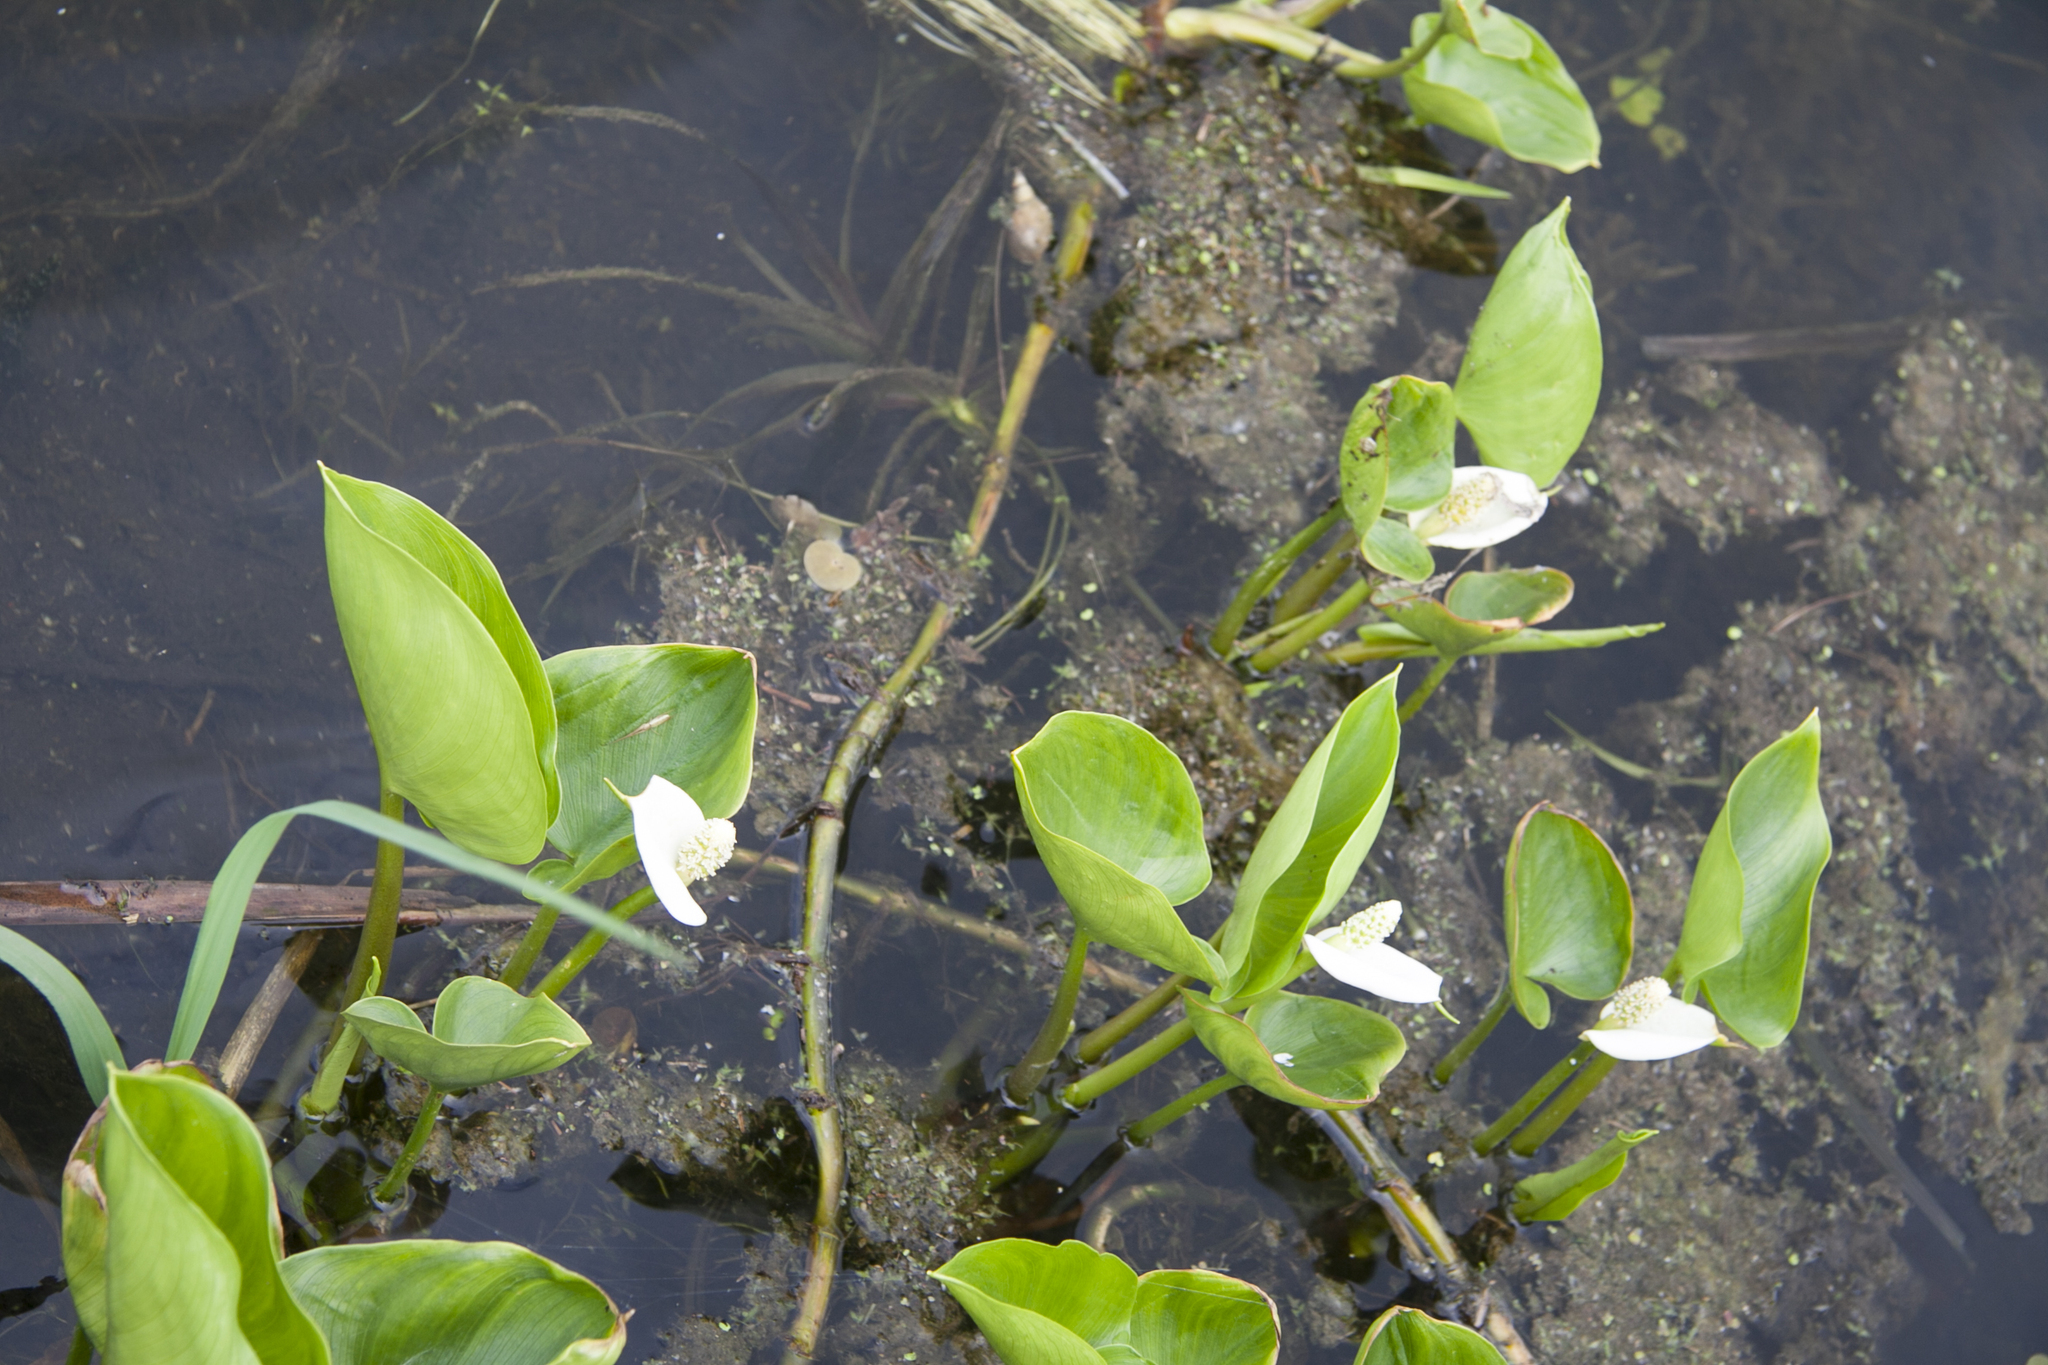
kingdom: Plantae
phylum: Tracheophyta
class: Liliopsida
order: Alismatales
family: Araceae
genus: Calla
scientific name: Calla palustris
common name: Bog arum
